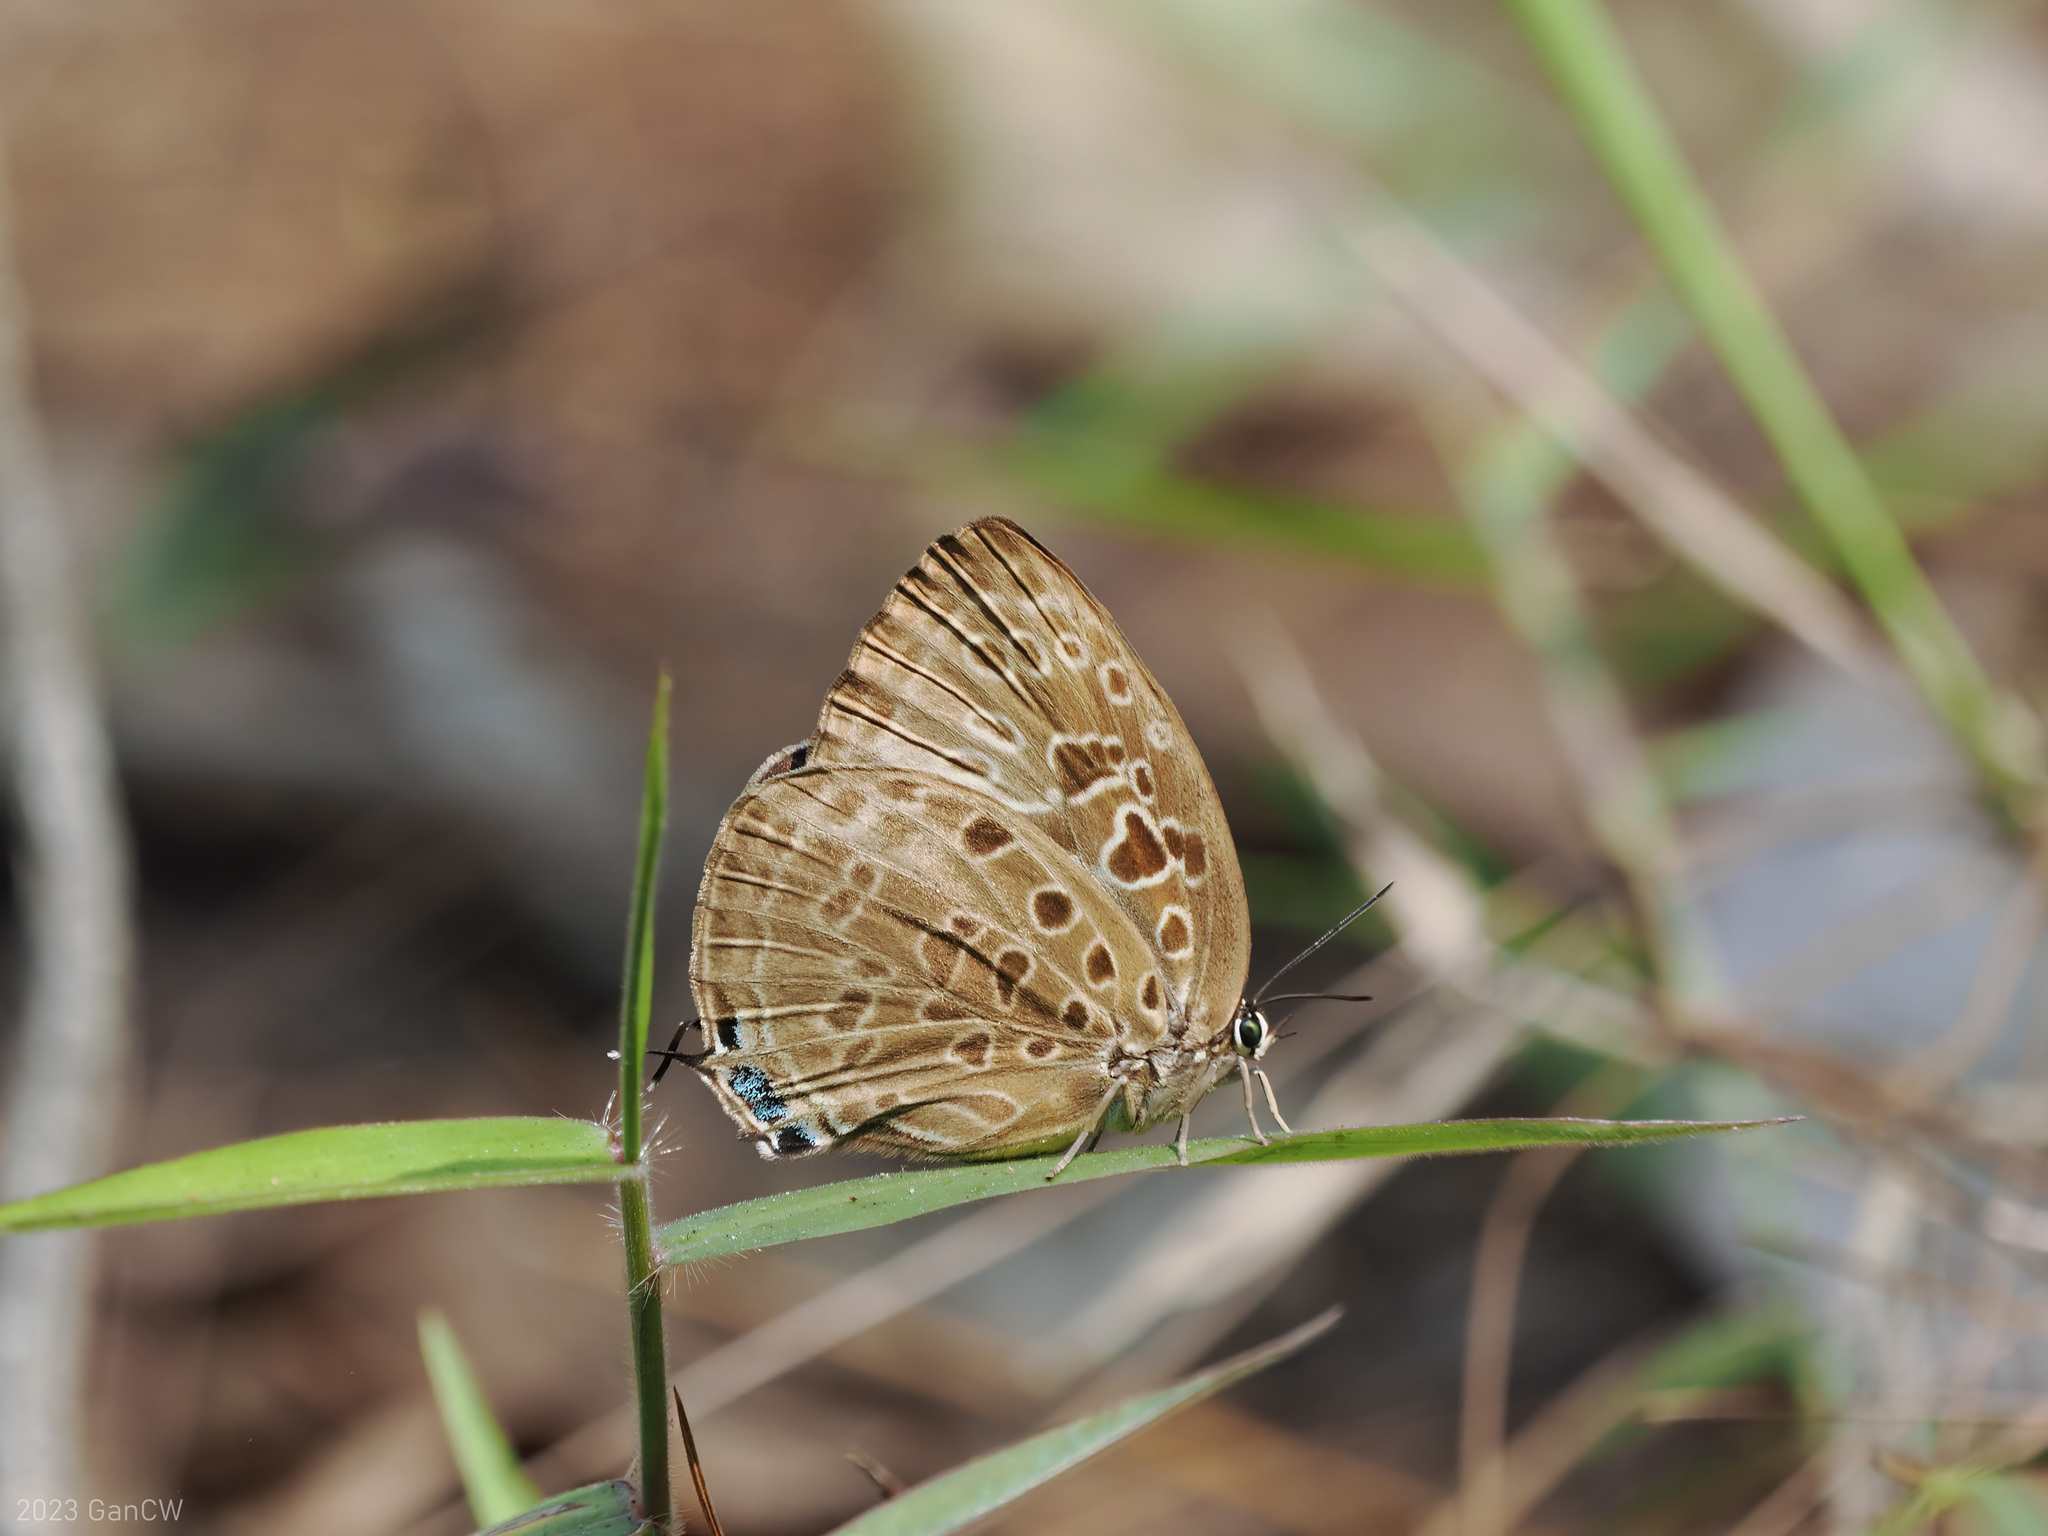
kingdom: Animalia
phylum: Arthropoda
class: Insecta
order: Lepidoptera
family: Lycaenidae
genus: Arhopala
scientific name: Arhopala anarte
